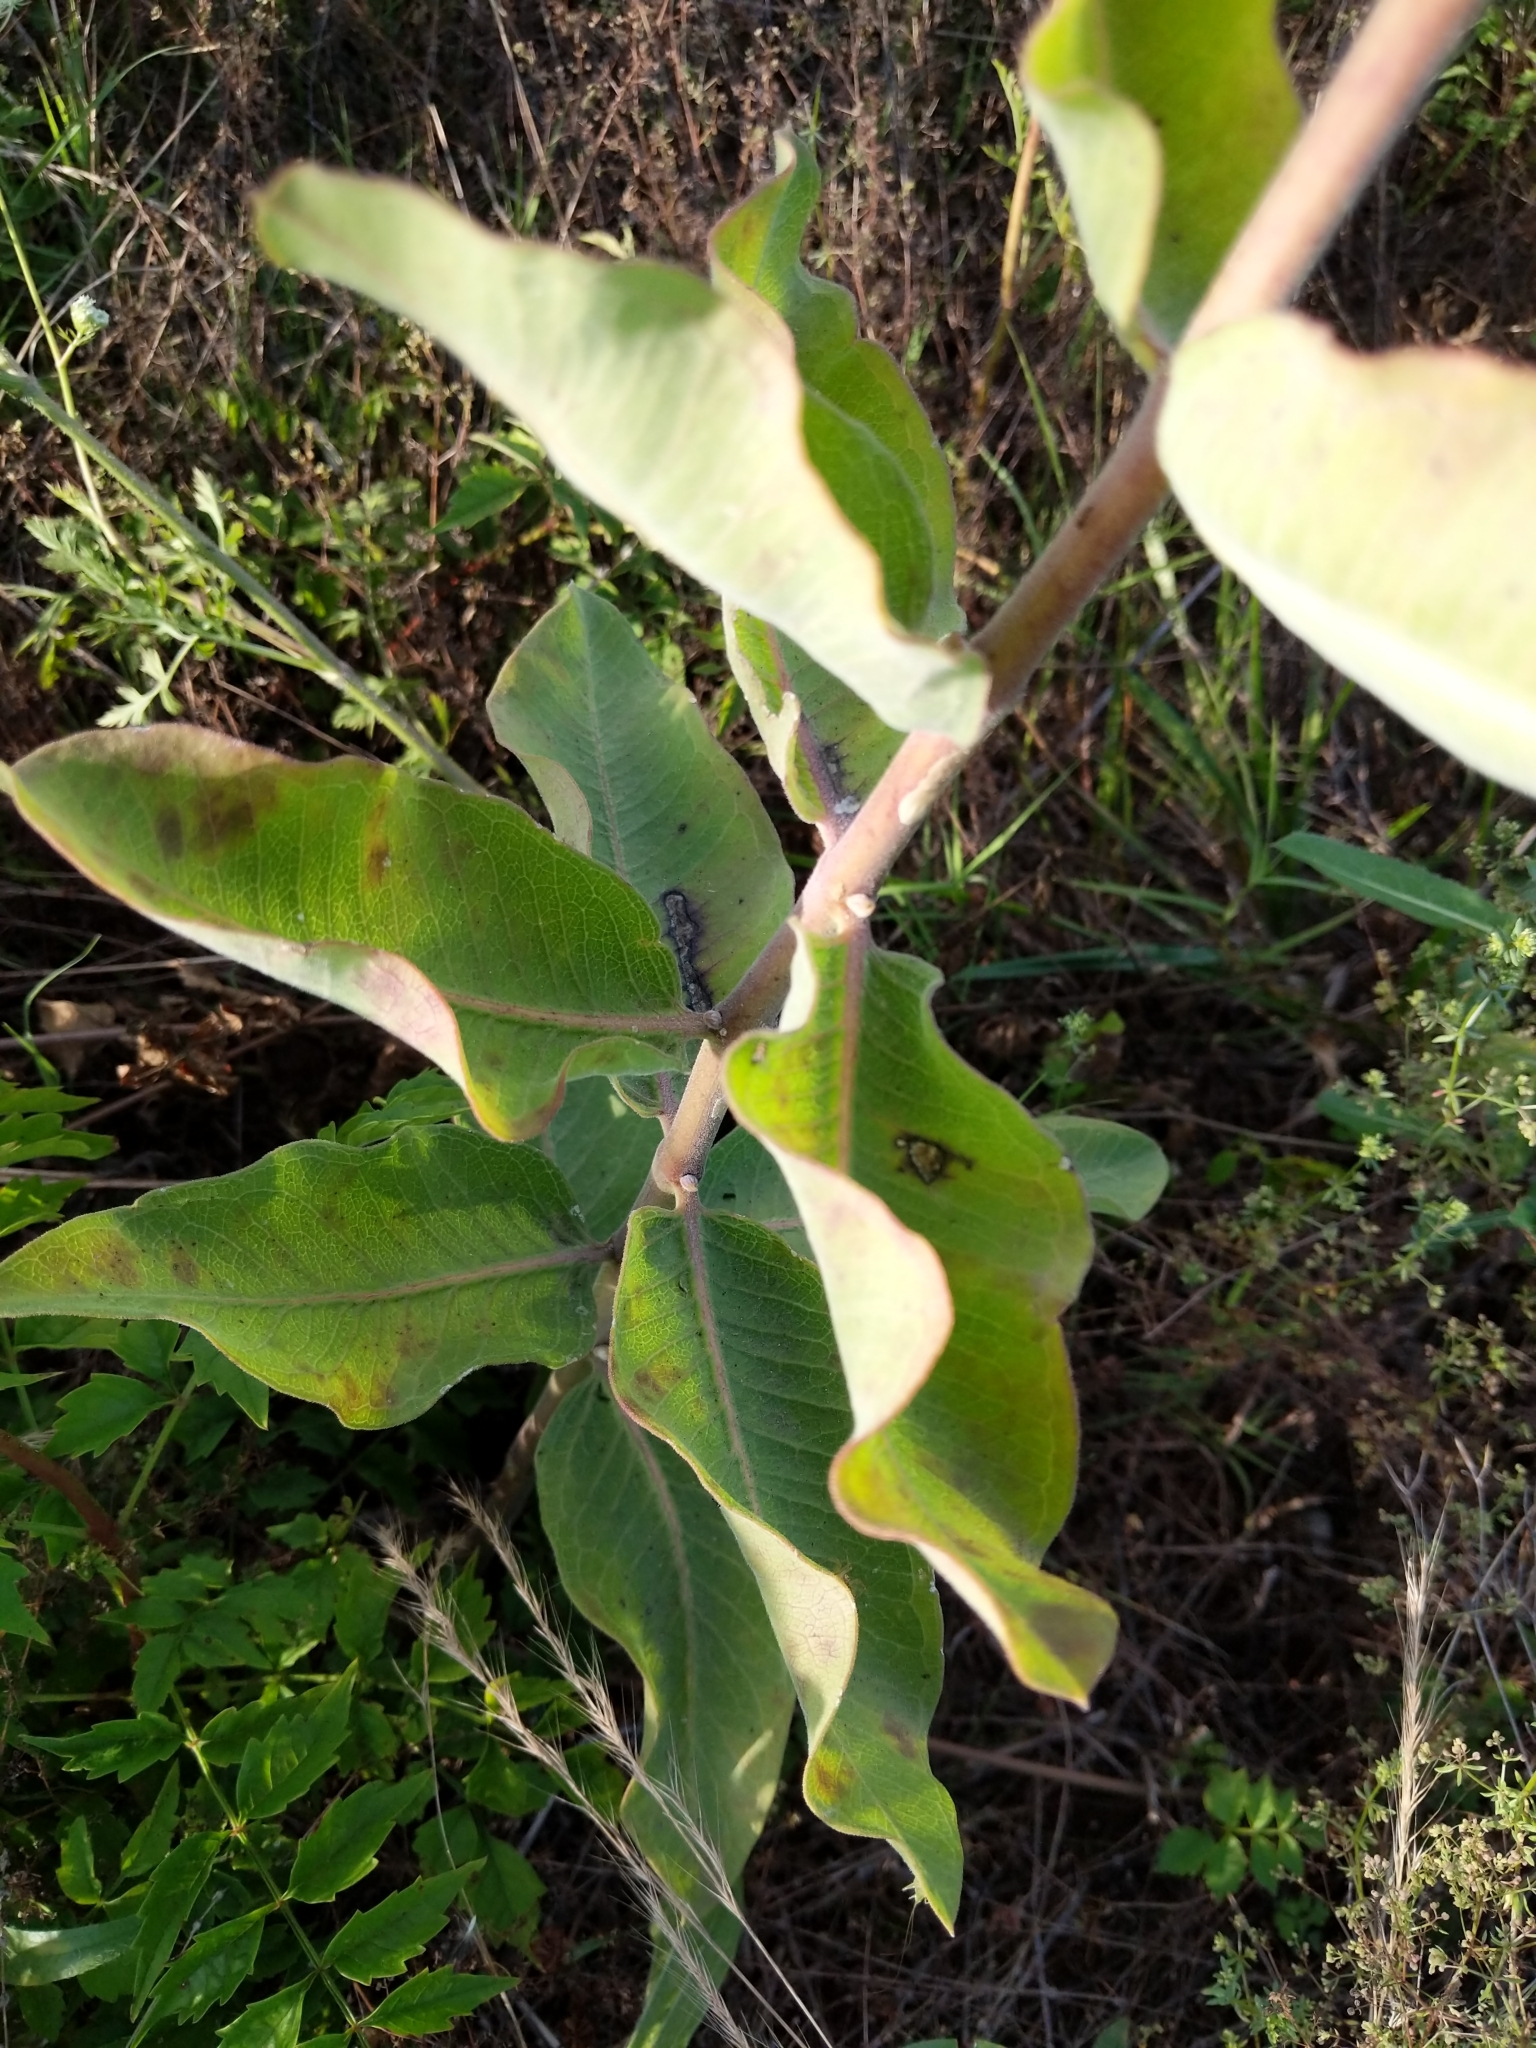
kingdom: Plantae
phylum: Tracheophyta
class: Magnoliopsida
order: Gentianales
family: Apocynaceae
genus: Asclepias
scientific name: Asclepias viridiflora
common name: Green comet milkweed
